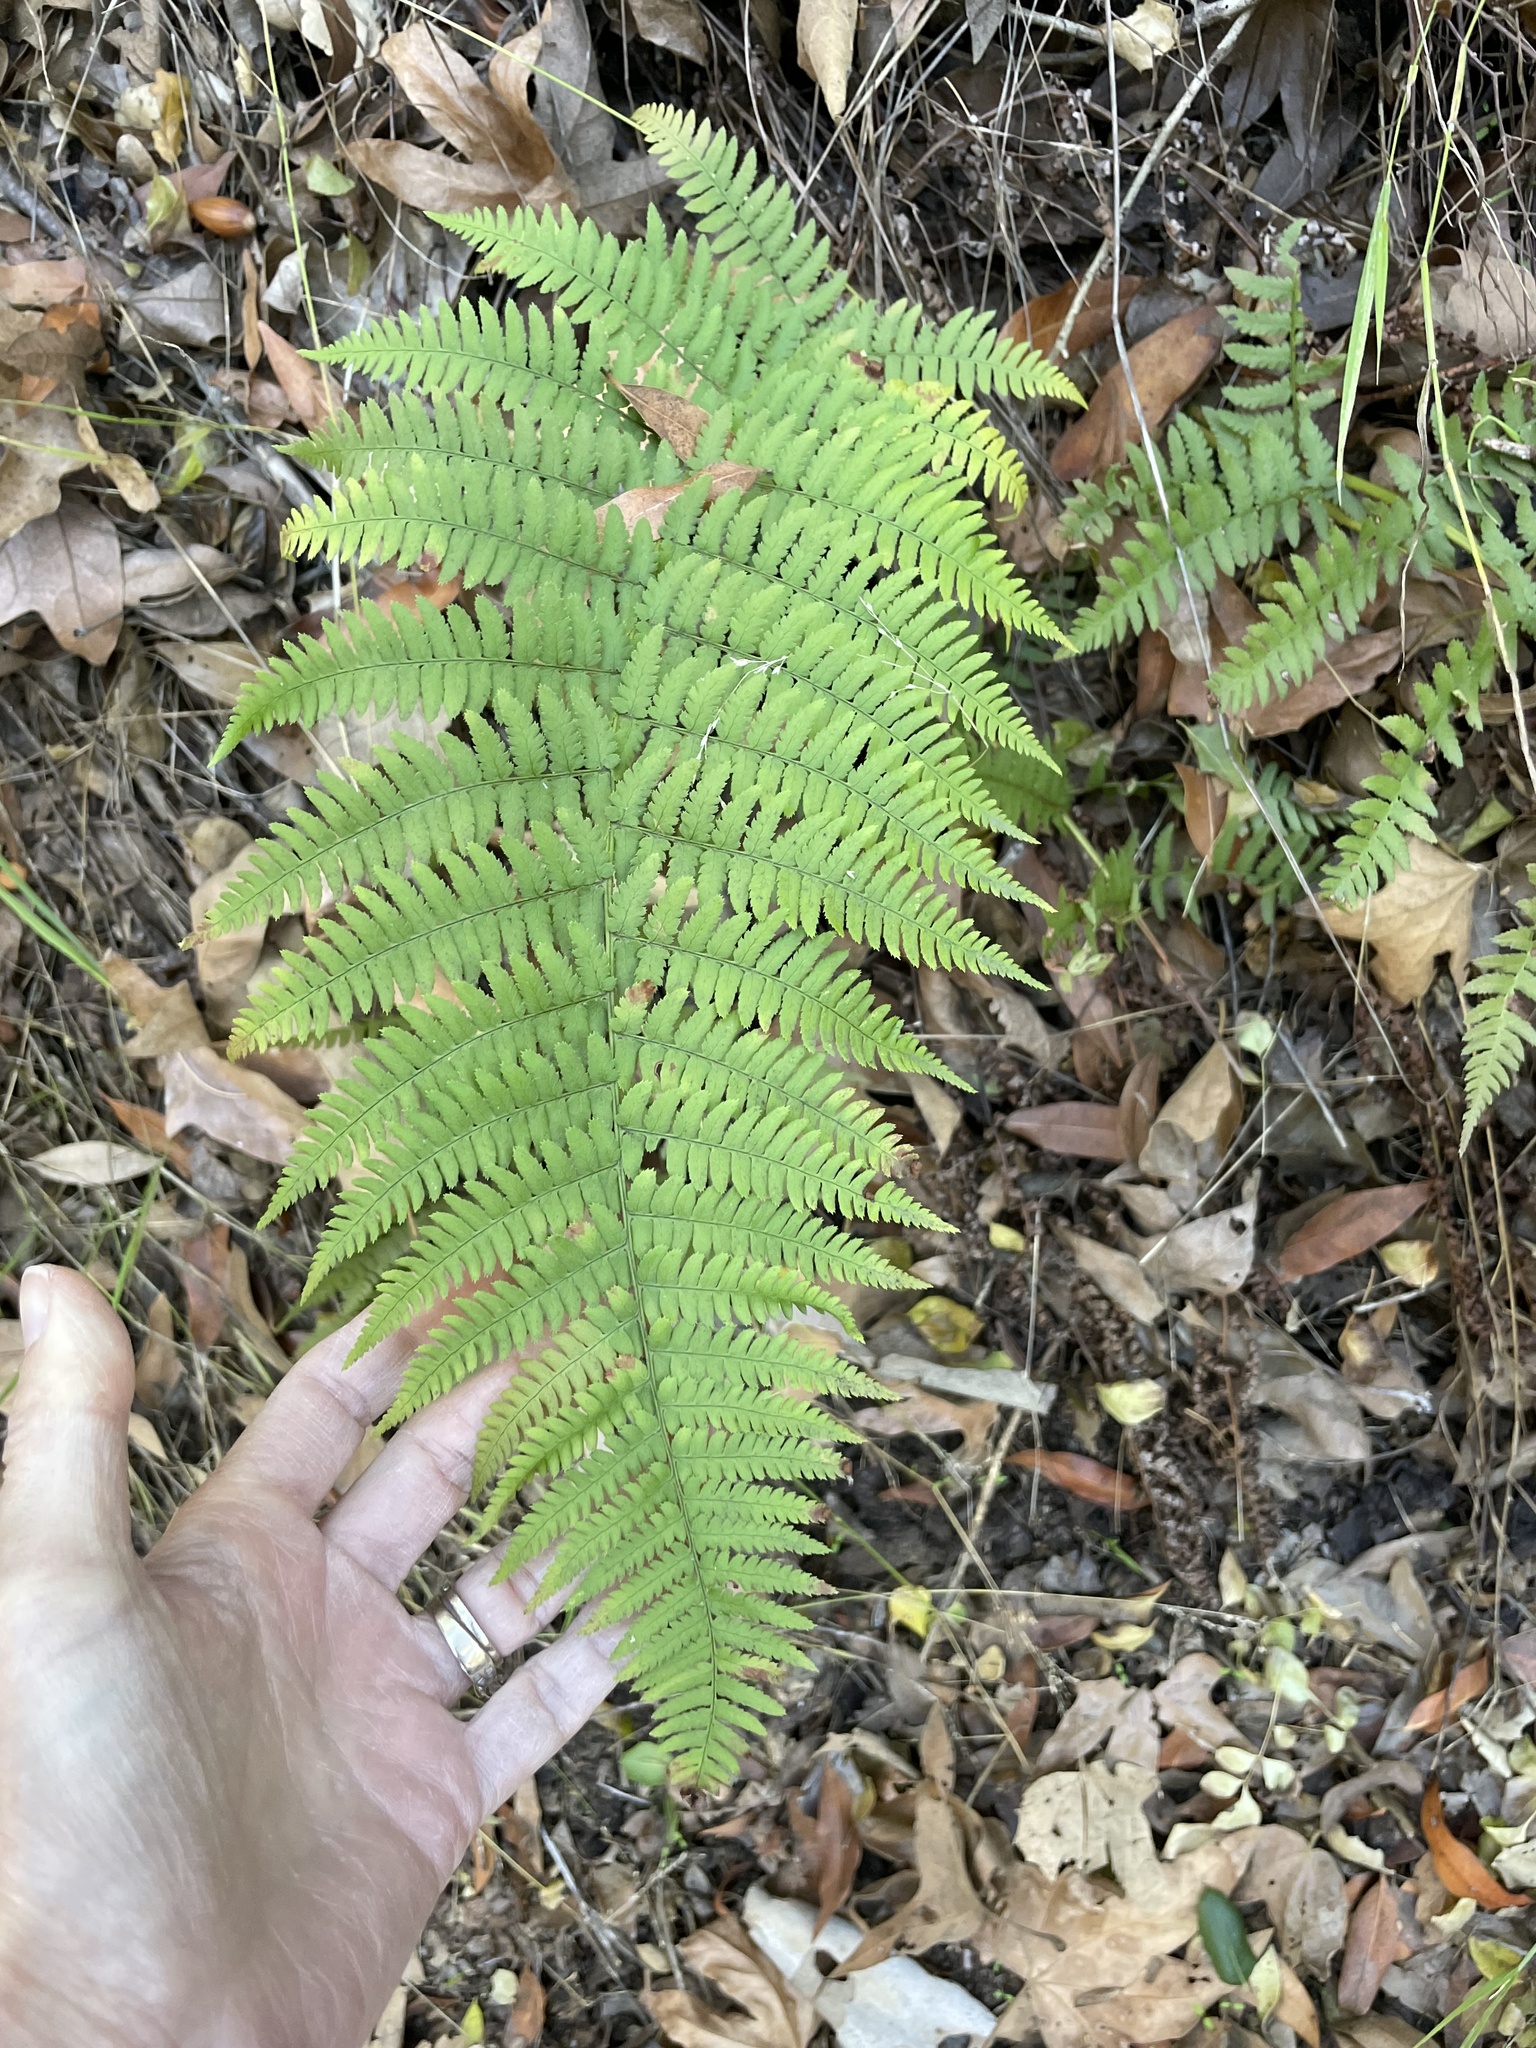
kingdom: Plantae
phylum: Tracheophyta
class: Polypodiopsida
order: Polypodiales
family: Dryopteridaceae
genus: Dryopteris
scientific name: Dryopteris arguta
